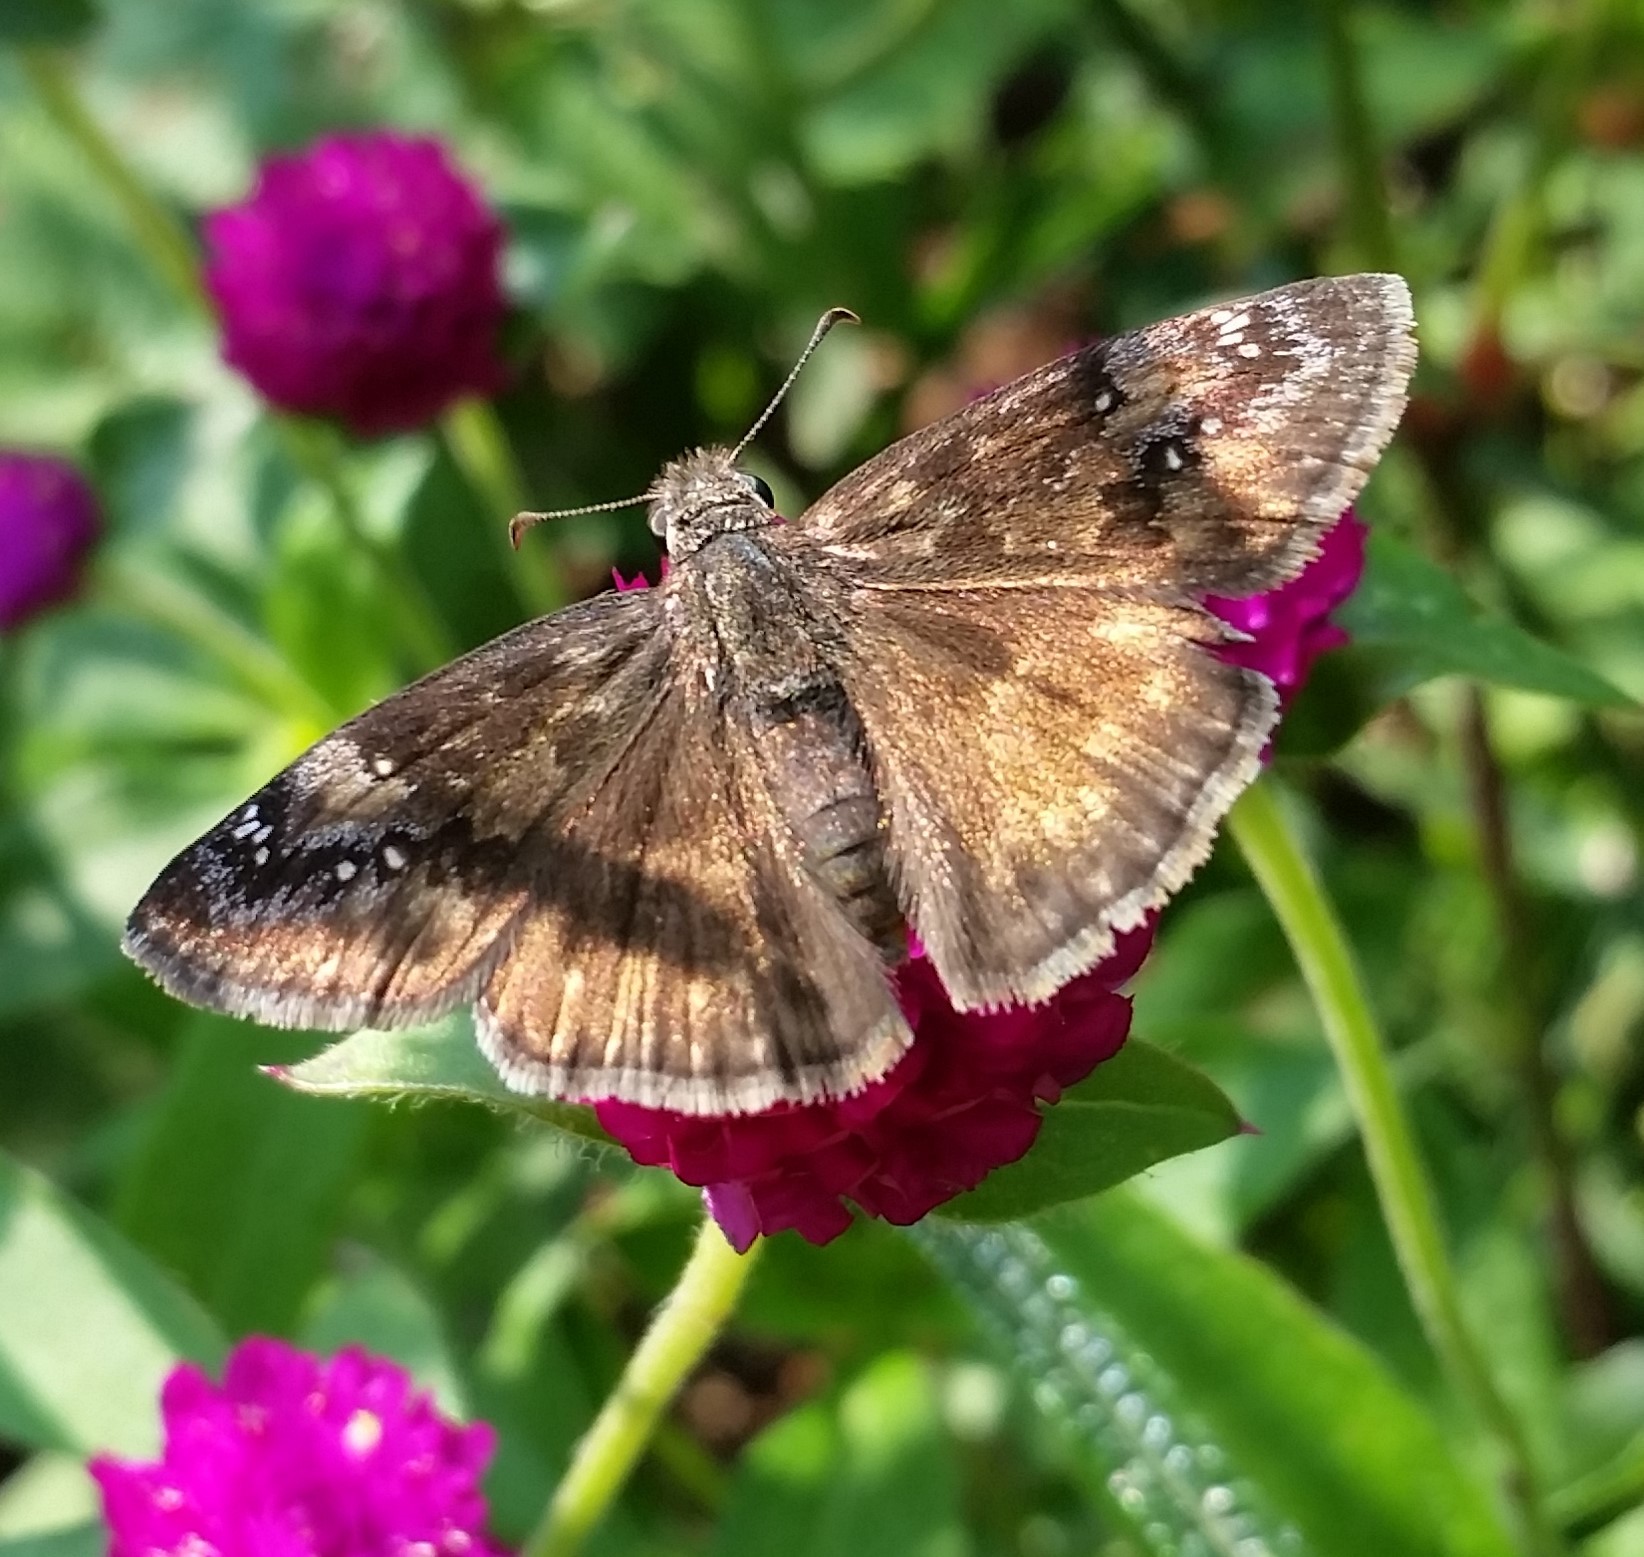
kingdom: Animalia
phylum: Arthropoda
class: Insecta
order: Lepidoptera
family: Hesperiidae
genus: Erynnis
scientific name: Erynnis baptisiae
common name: Wild indigo duskywing
